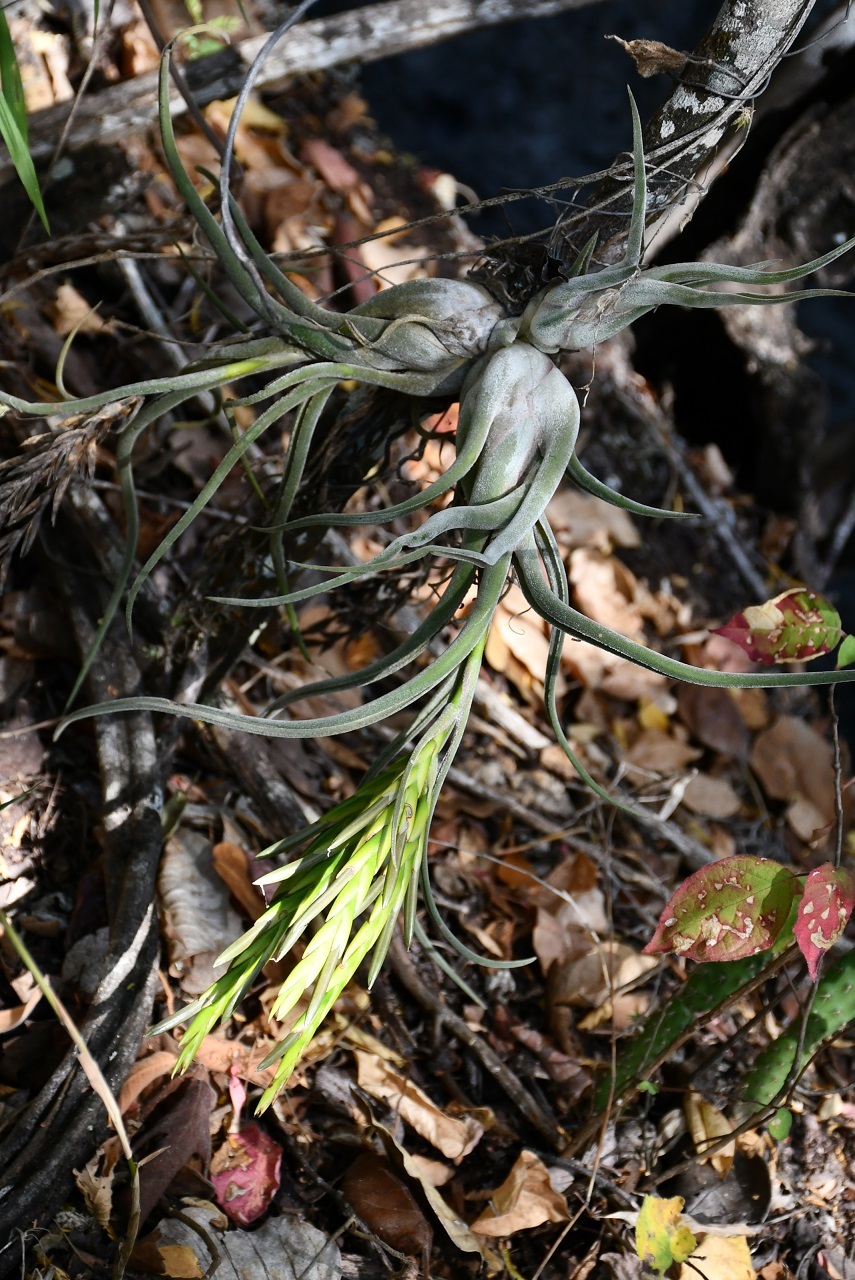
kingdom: Plantae
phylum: Tracheophyta
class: Liliopsida
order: Poales
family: Bromeliaceae
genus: Tillandsia
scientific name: Tillandsia caput-medusae
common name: Octopus plant
